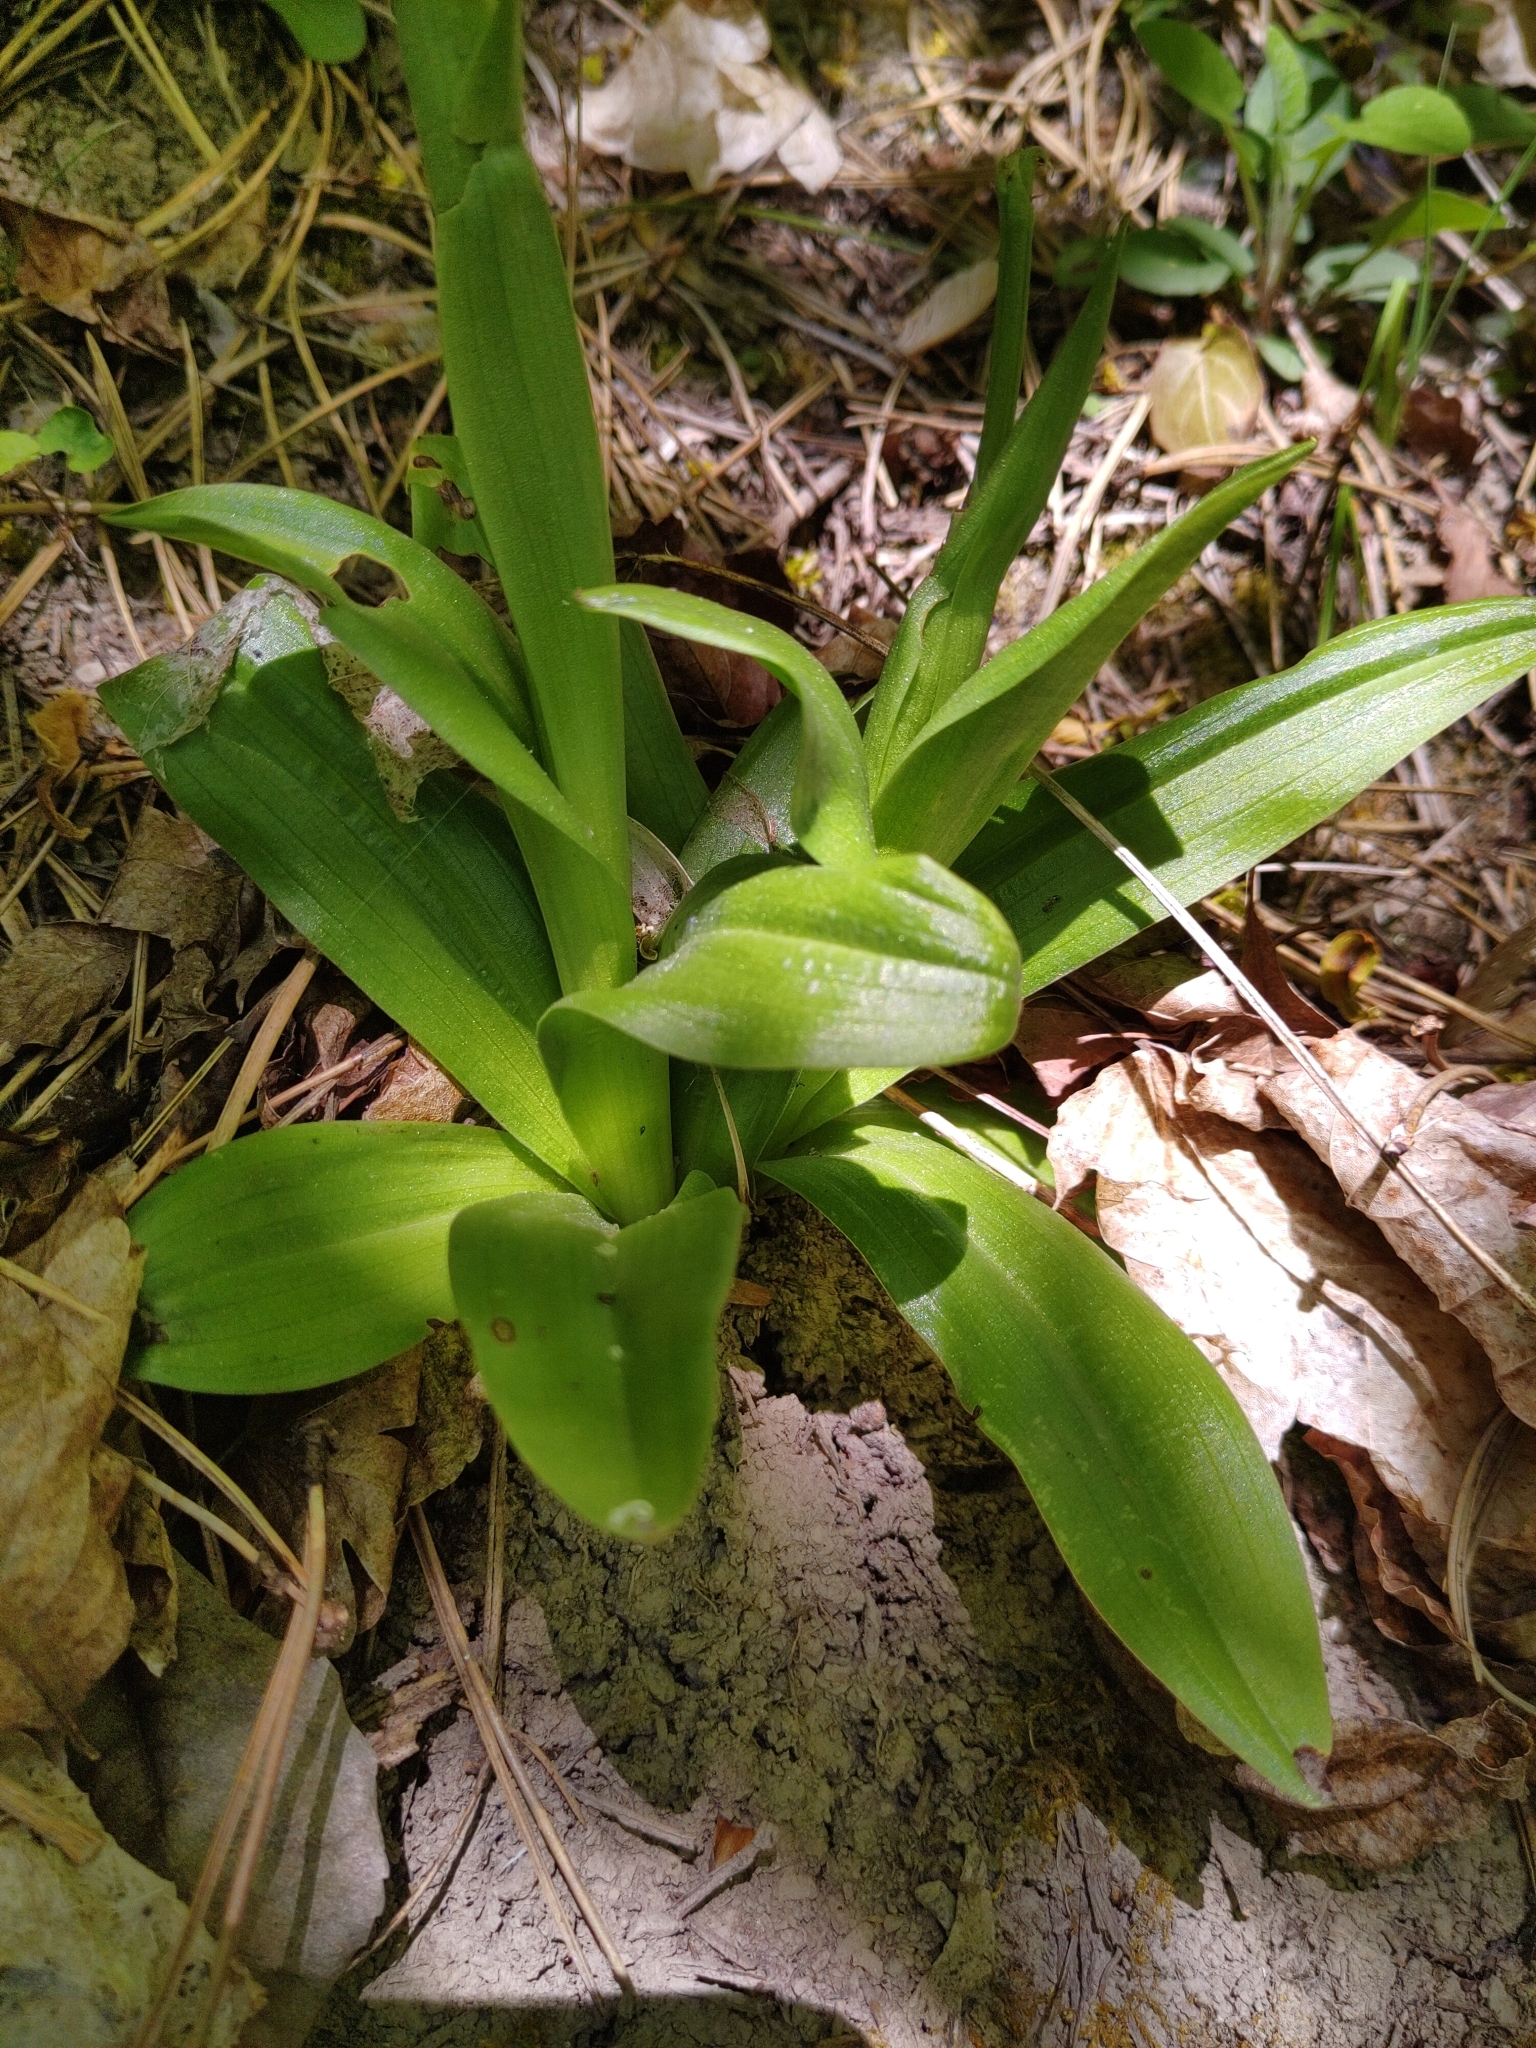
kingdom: Plantae
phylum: Tracheophyta
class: Liliopsida
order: Asparagales
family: Orchidaceae
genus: Orchis
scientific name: Orchis anthropophora
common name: Man orchid
